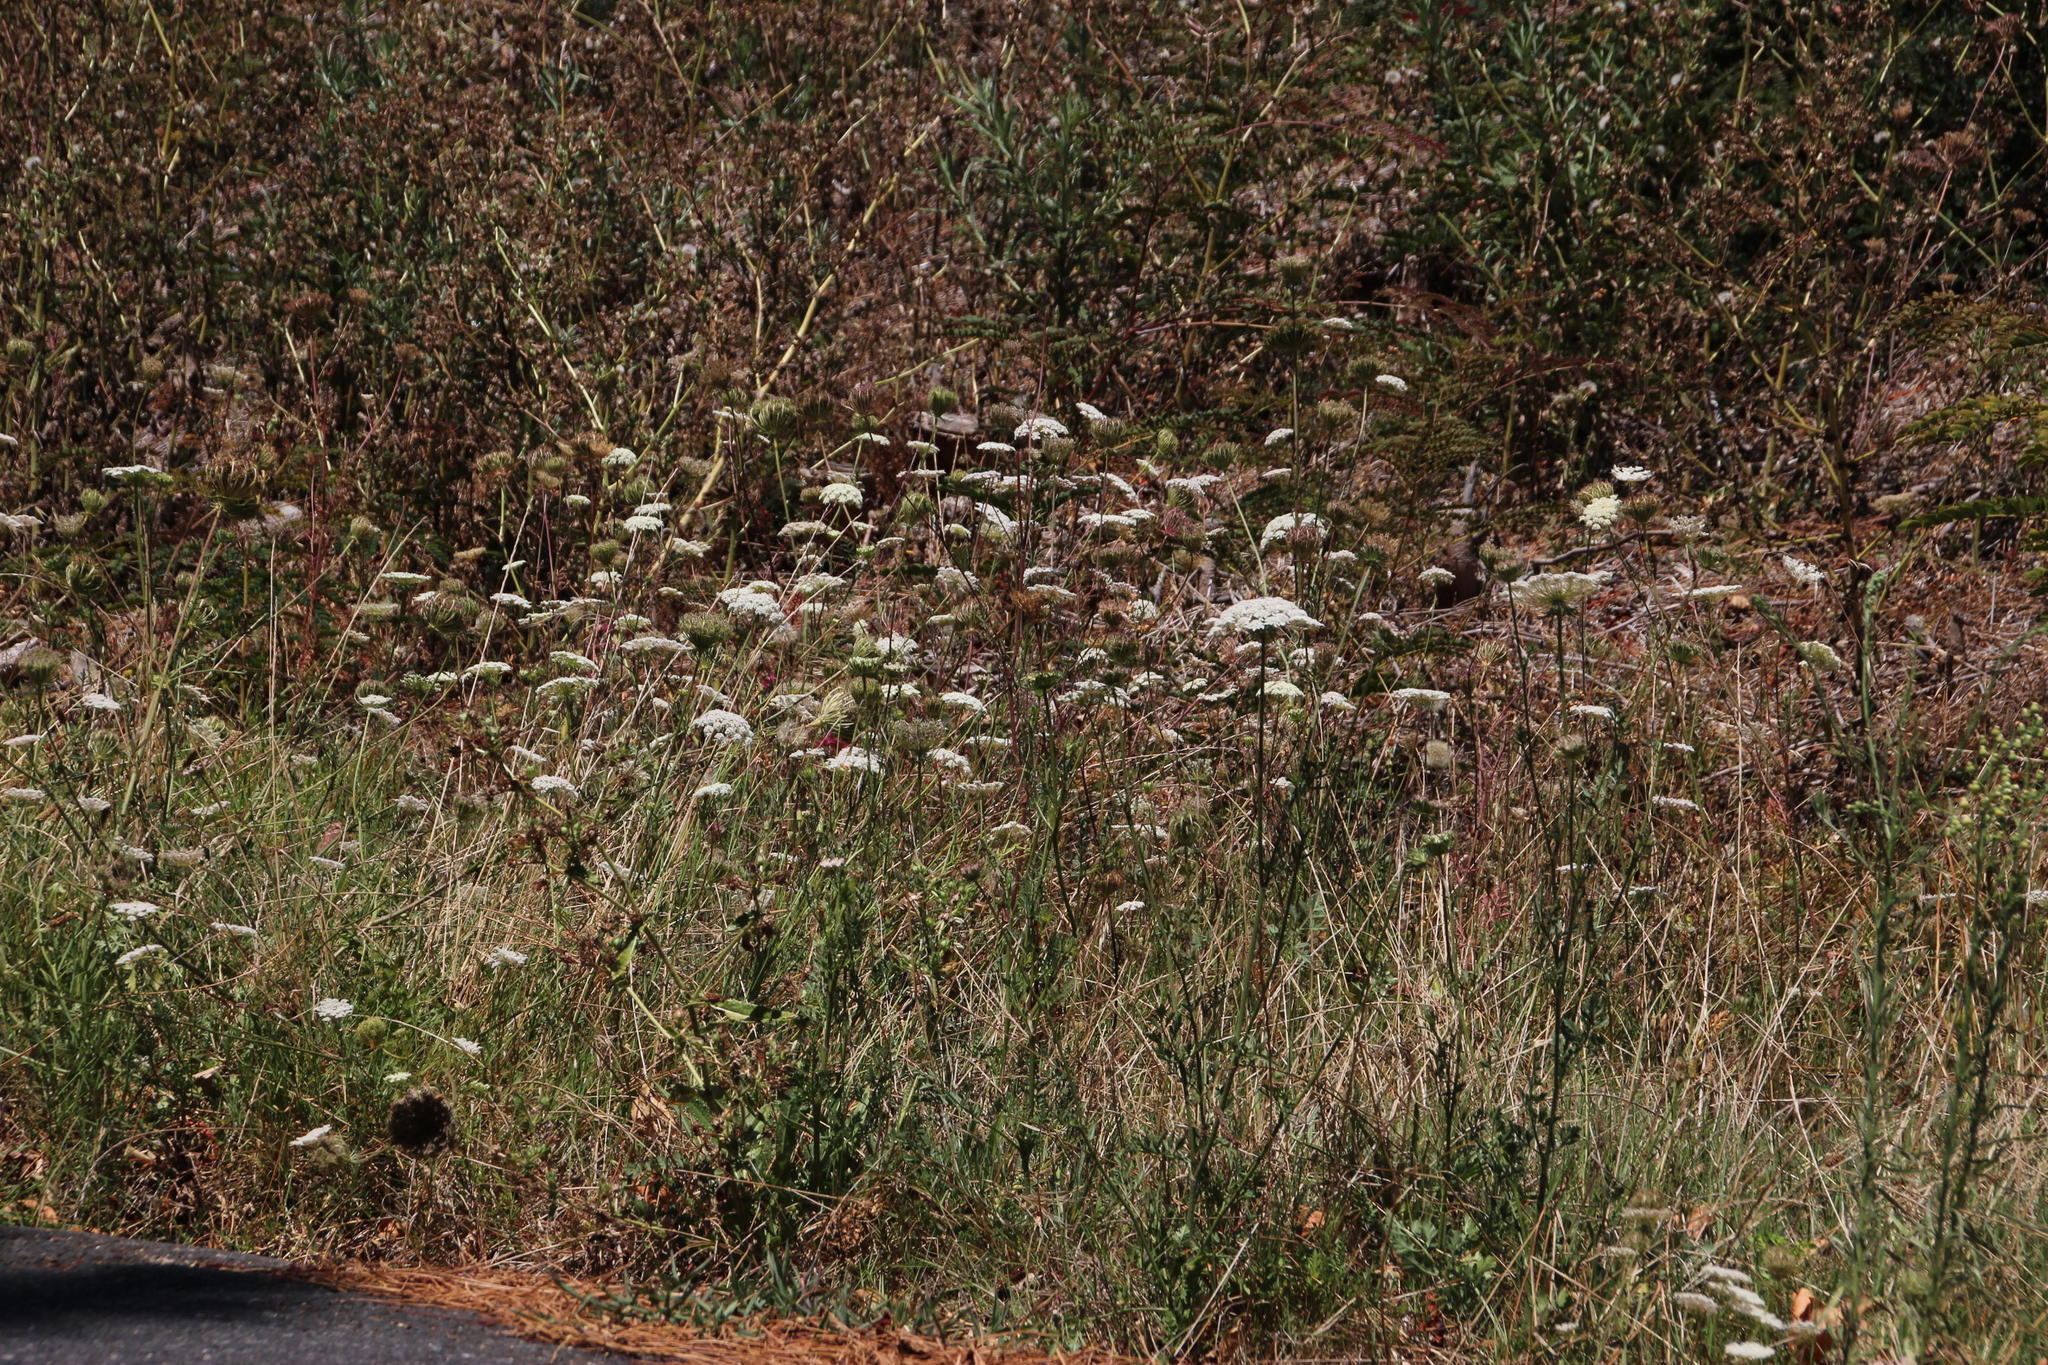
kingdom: Plantae
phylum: Tracheophyta
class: Magnoliopsida
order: Apiales
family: Apiaceae
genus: Daucus
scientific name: Daucus carota
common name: Wild carrot
